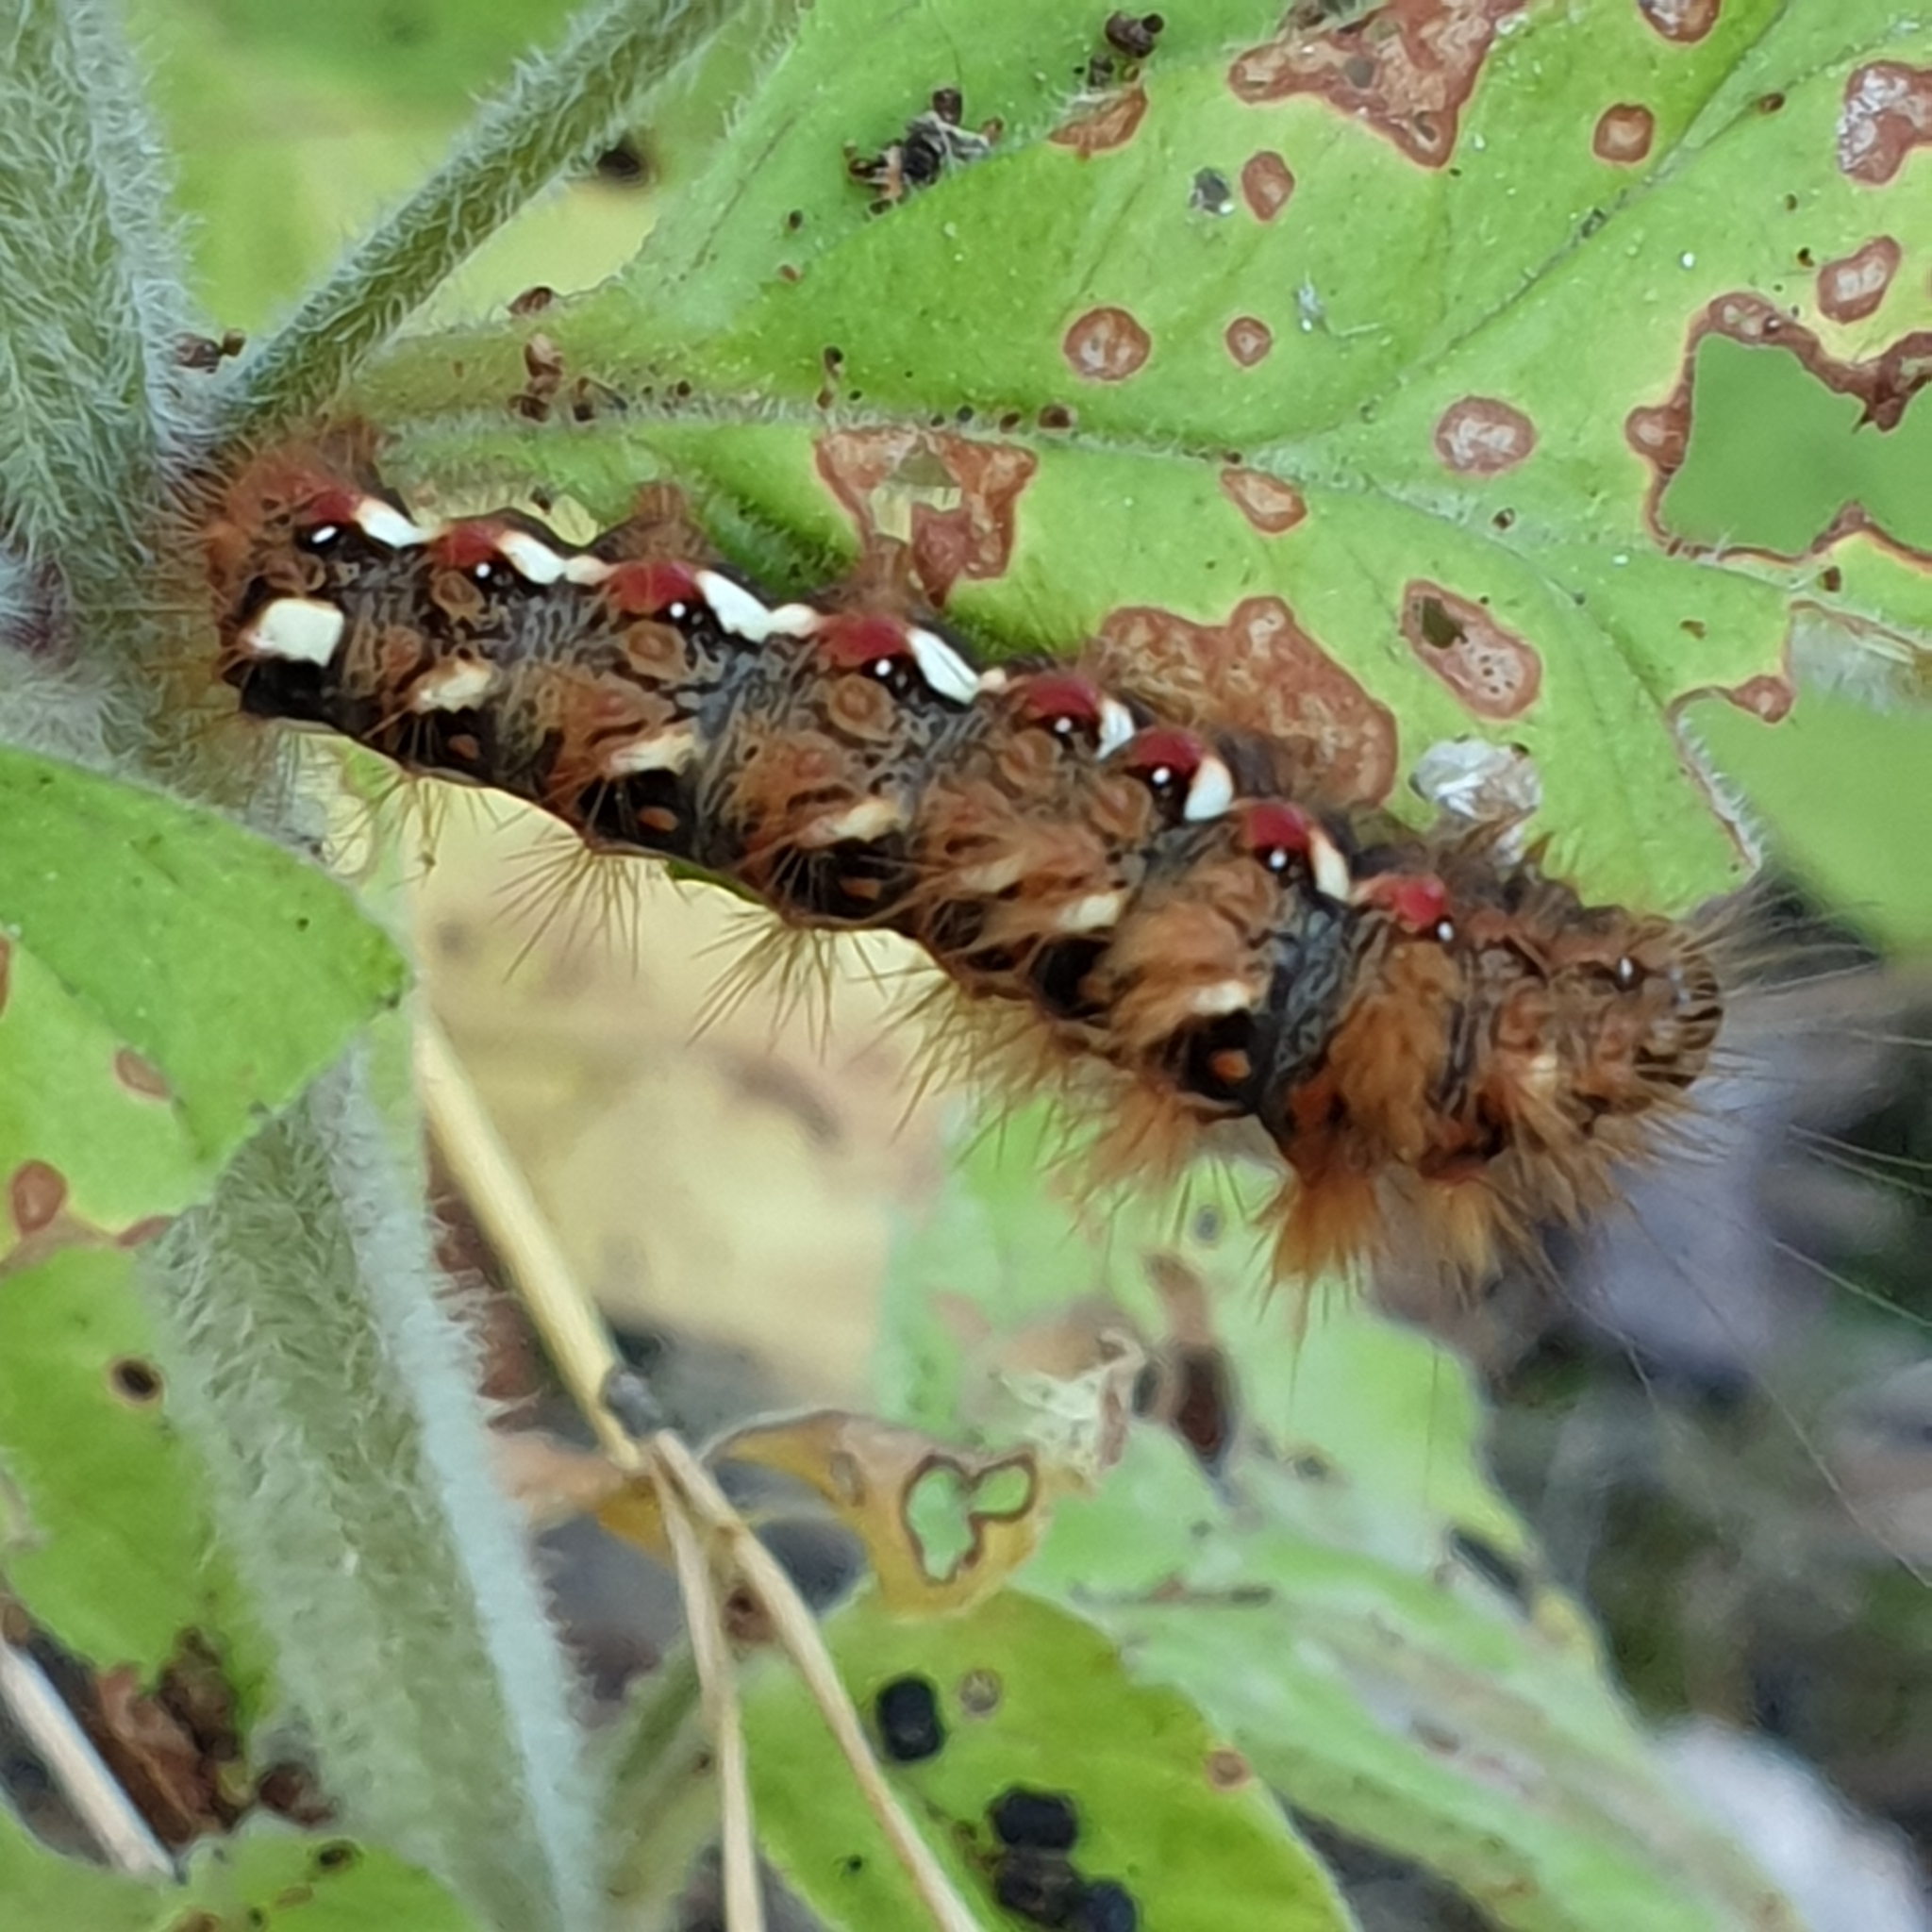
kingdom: Animalia
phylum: Arthropoda
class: Insecta
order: Lepidoptera
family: Noctuidae
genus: Acronicta
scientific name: Acronicta rumicis
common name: Knot grass
